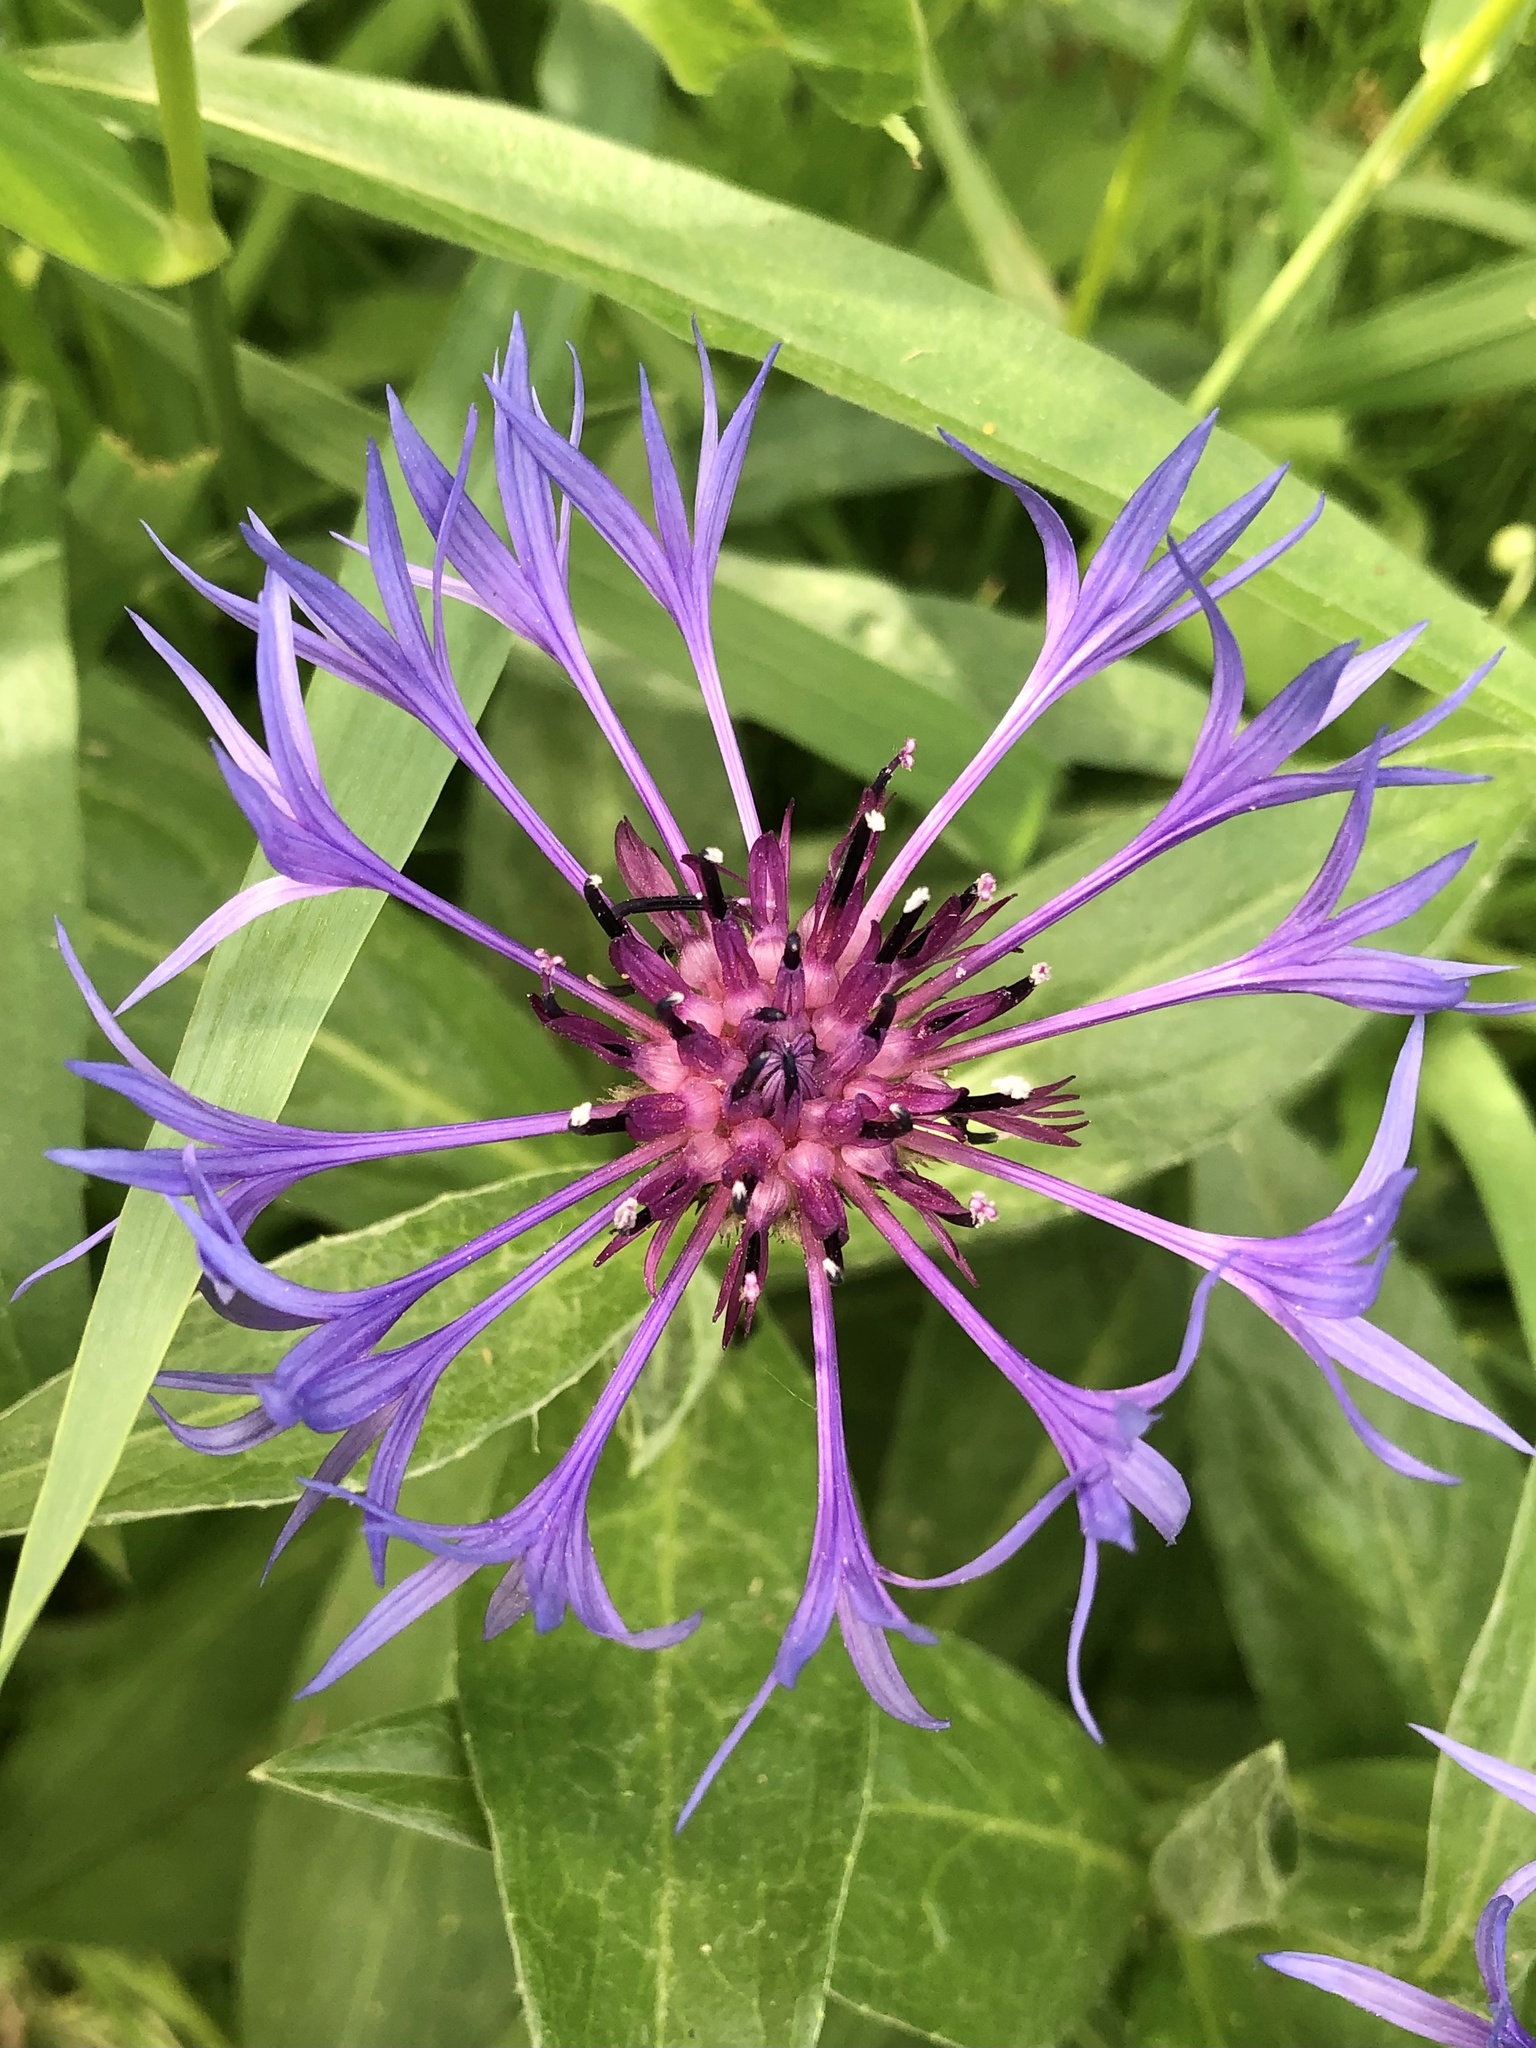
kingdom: Plantae
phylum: Tracheophyta
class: Magnoliopsida
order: Asterales
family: Asteraceae
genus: Centaurea
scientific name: Centaurea montana
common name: Perennial cornflower
